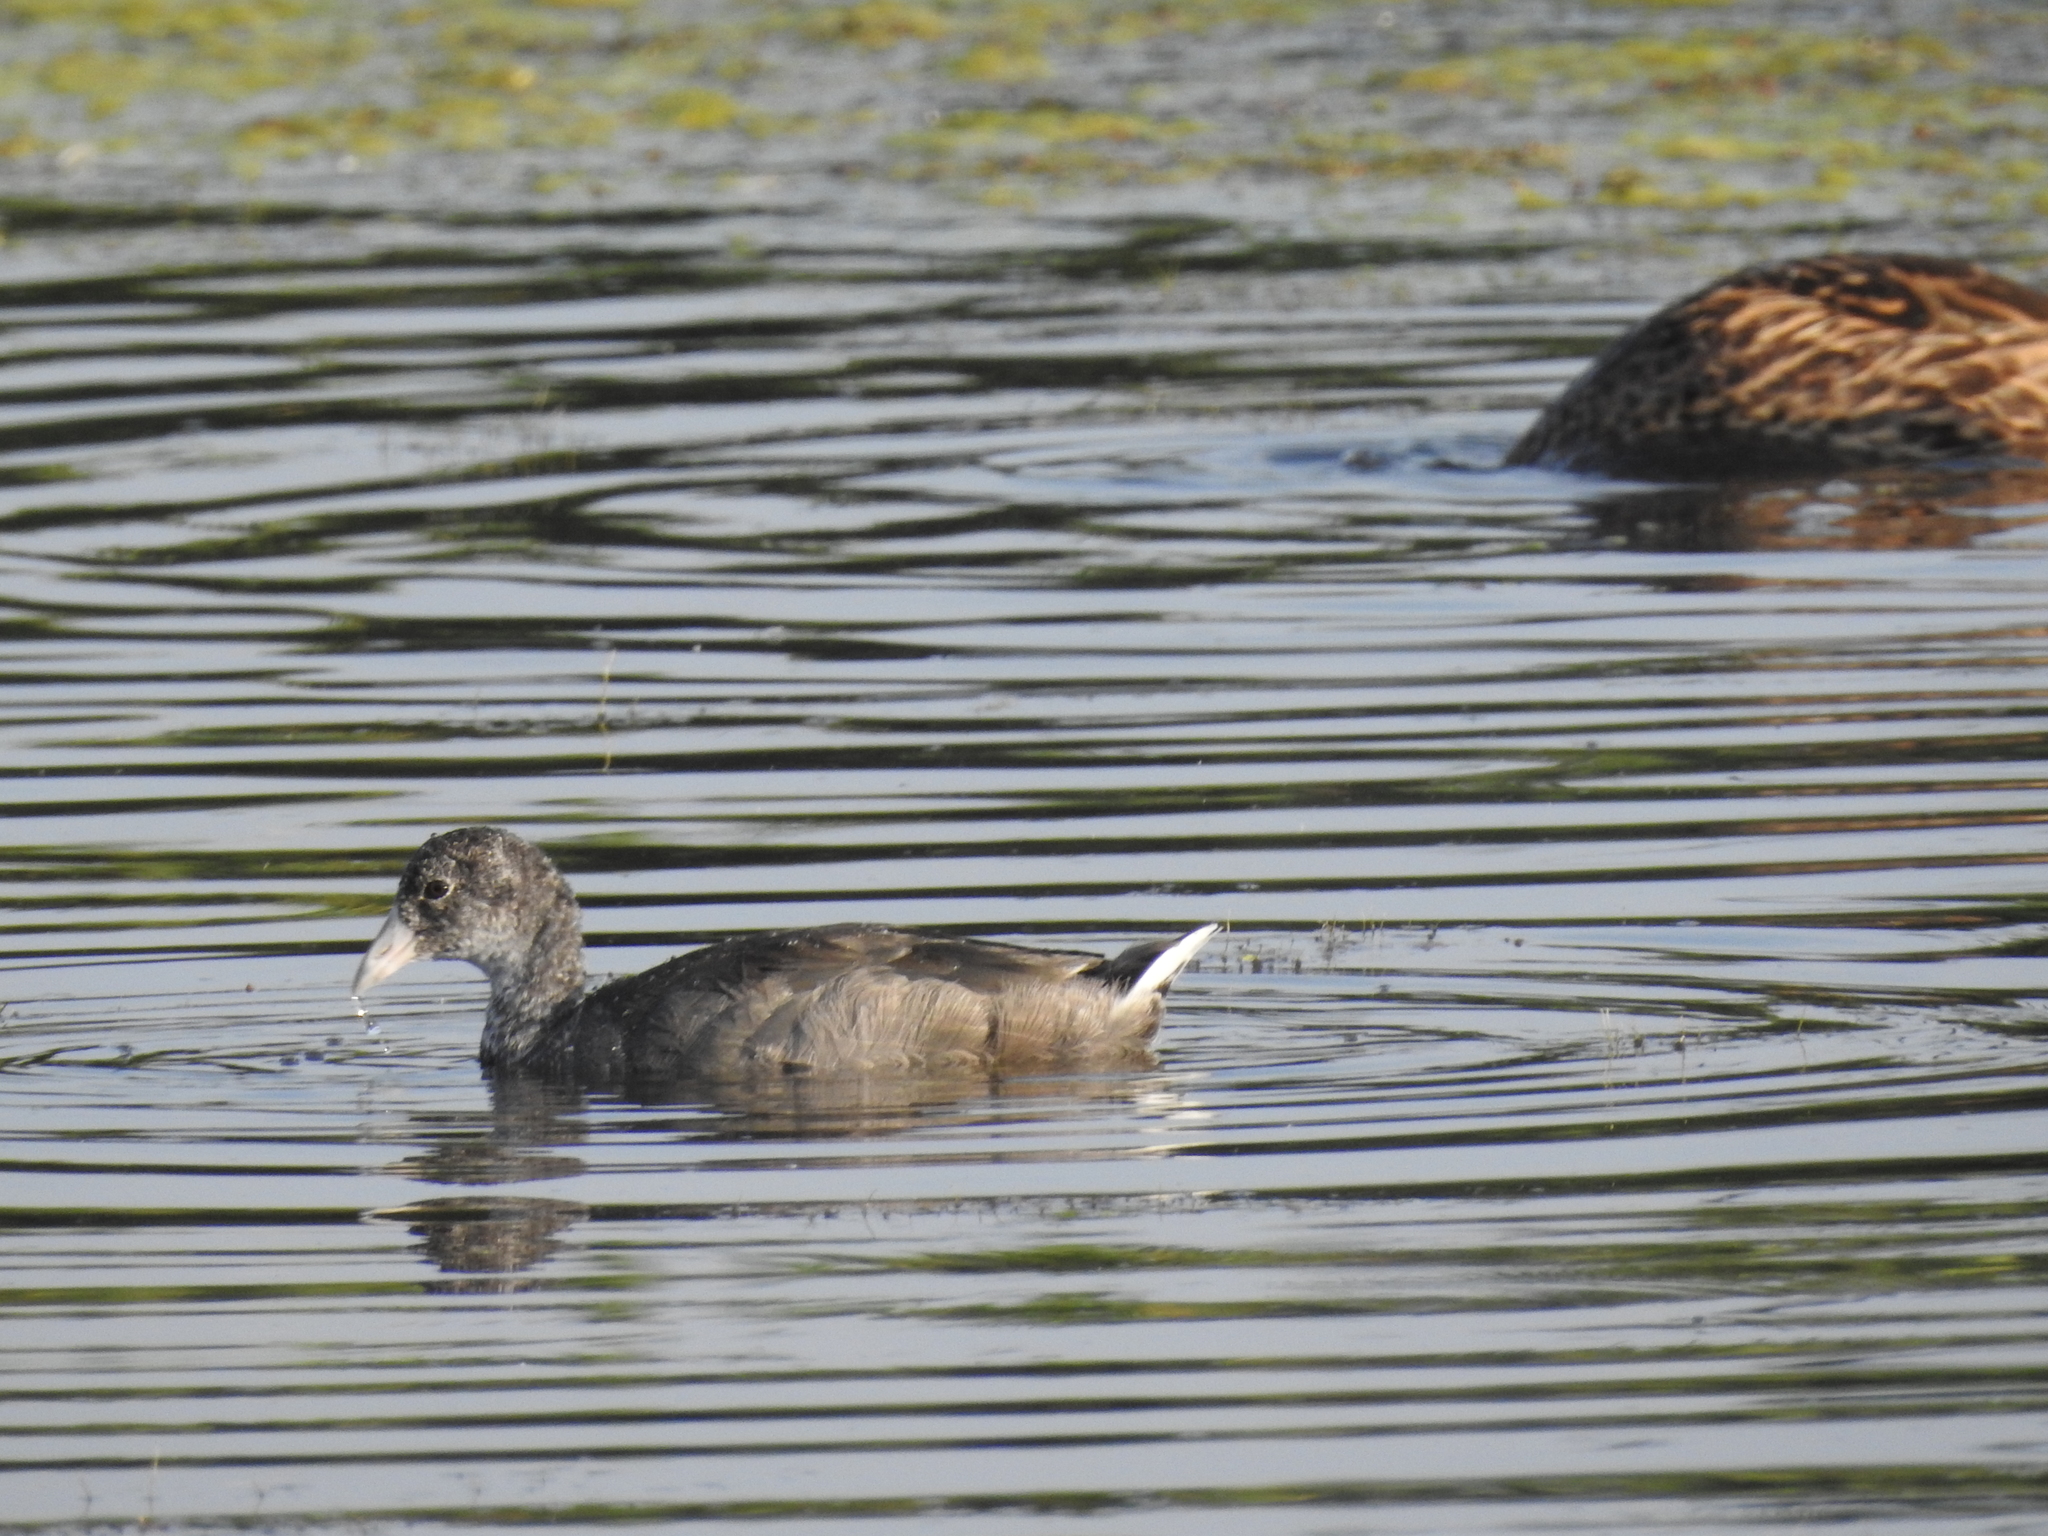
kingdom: Animalia
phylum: Chordata
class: Aves
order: Gruiformes
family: Rallidae
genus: Fulica
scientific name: Fulica americana
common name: American coot
